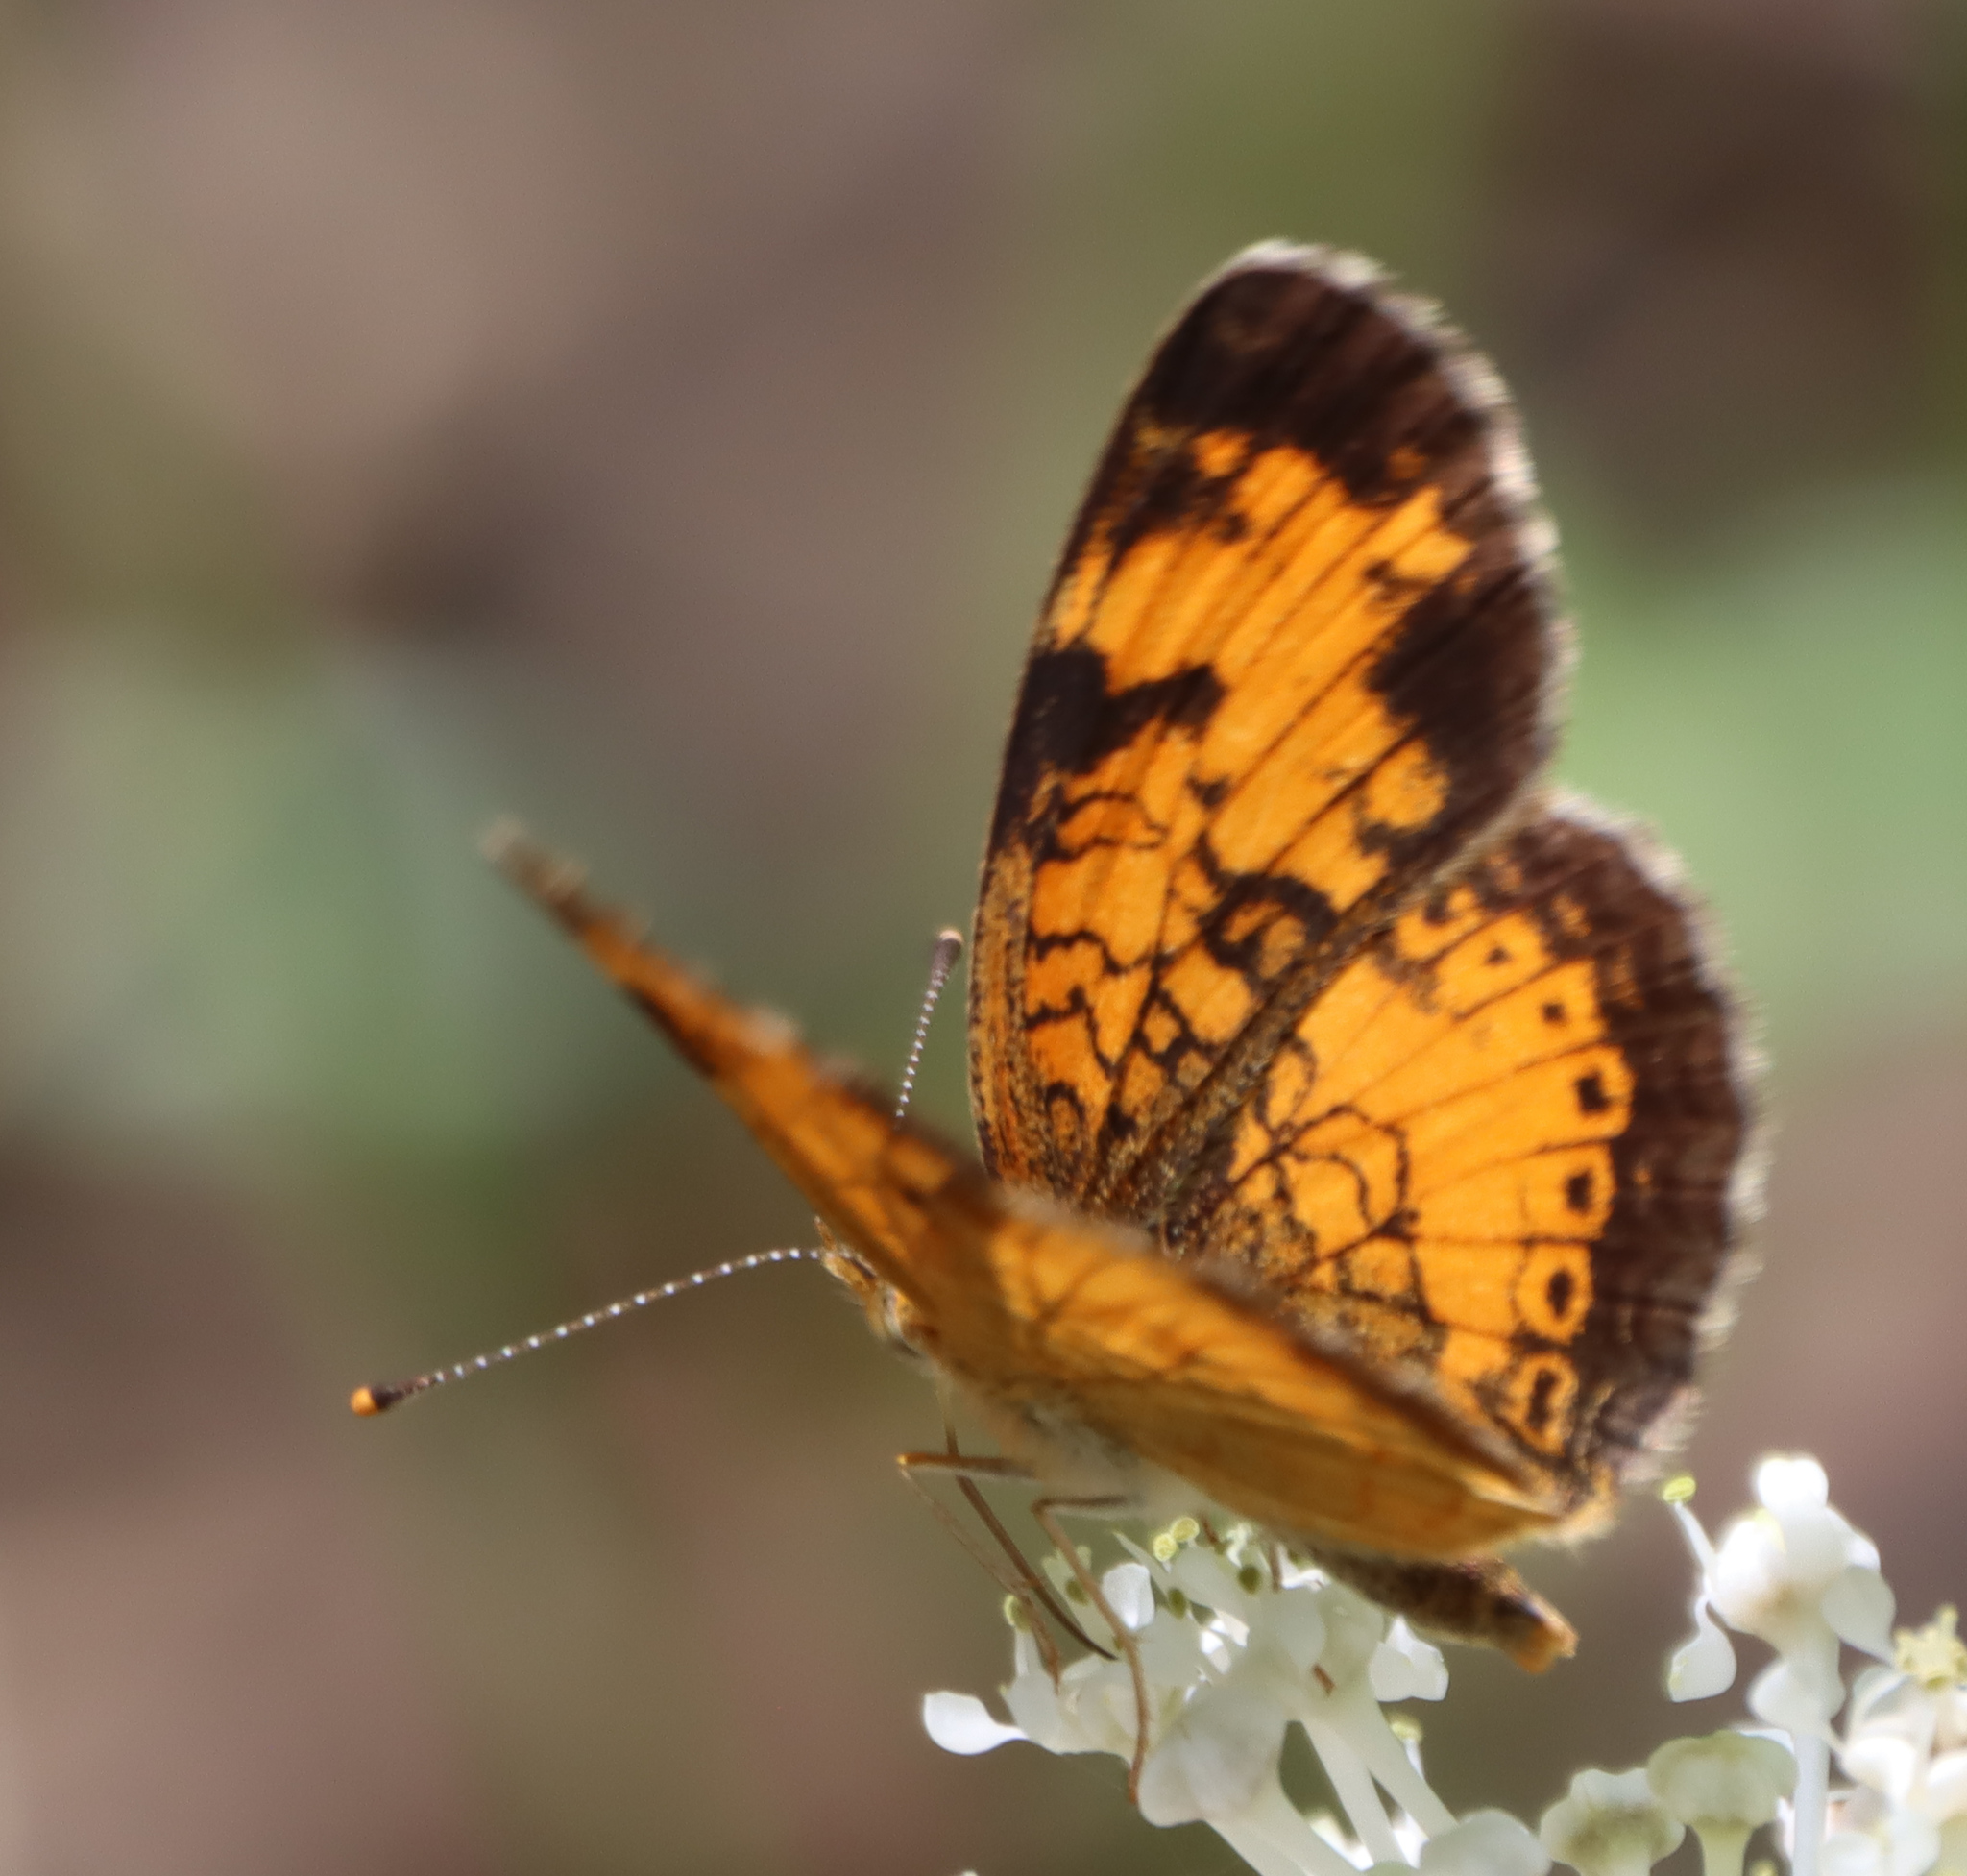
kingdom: Animalia
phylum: Arthropoda
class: Insecta
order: Lepidoptera
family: Nymphalidae
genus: Phyciodes
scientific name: Phyciodes tharos
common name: Pearl crescent
